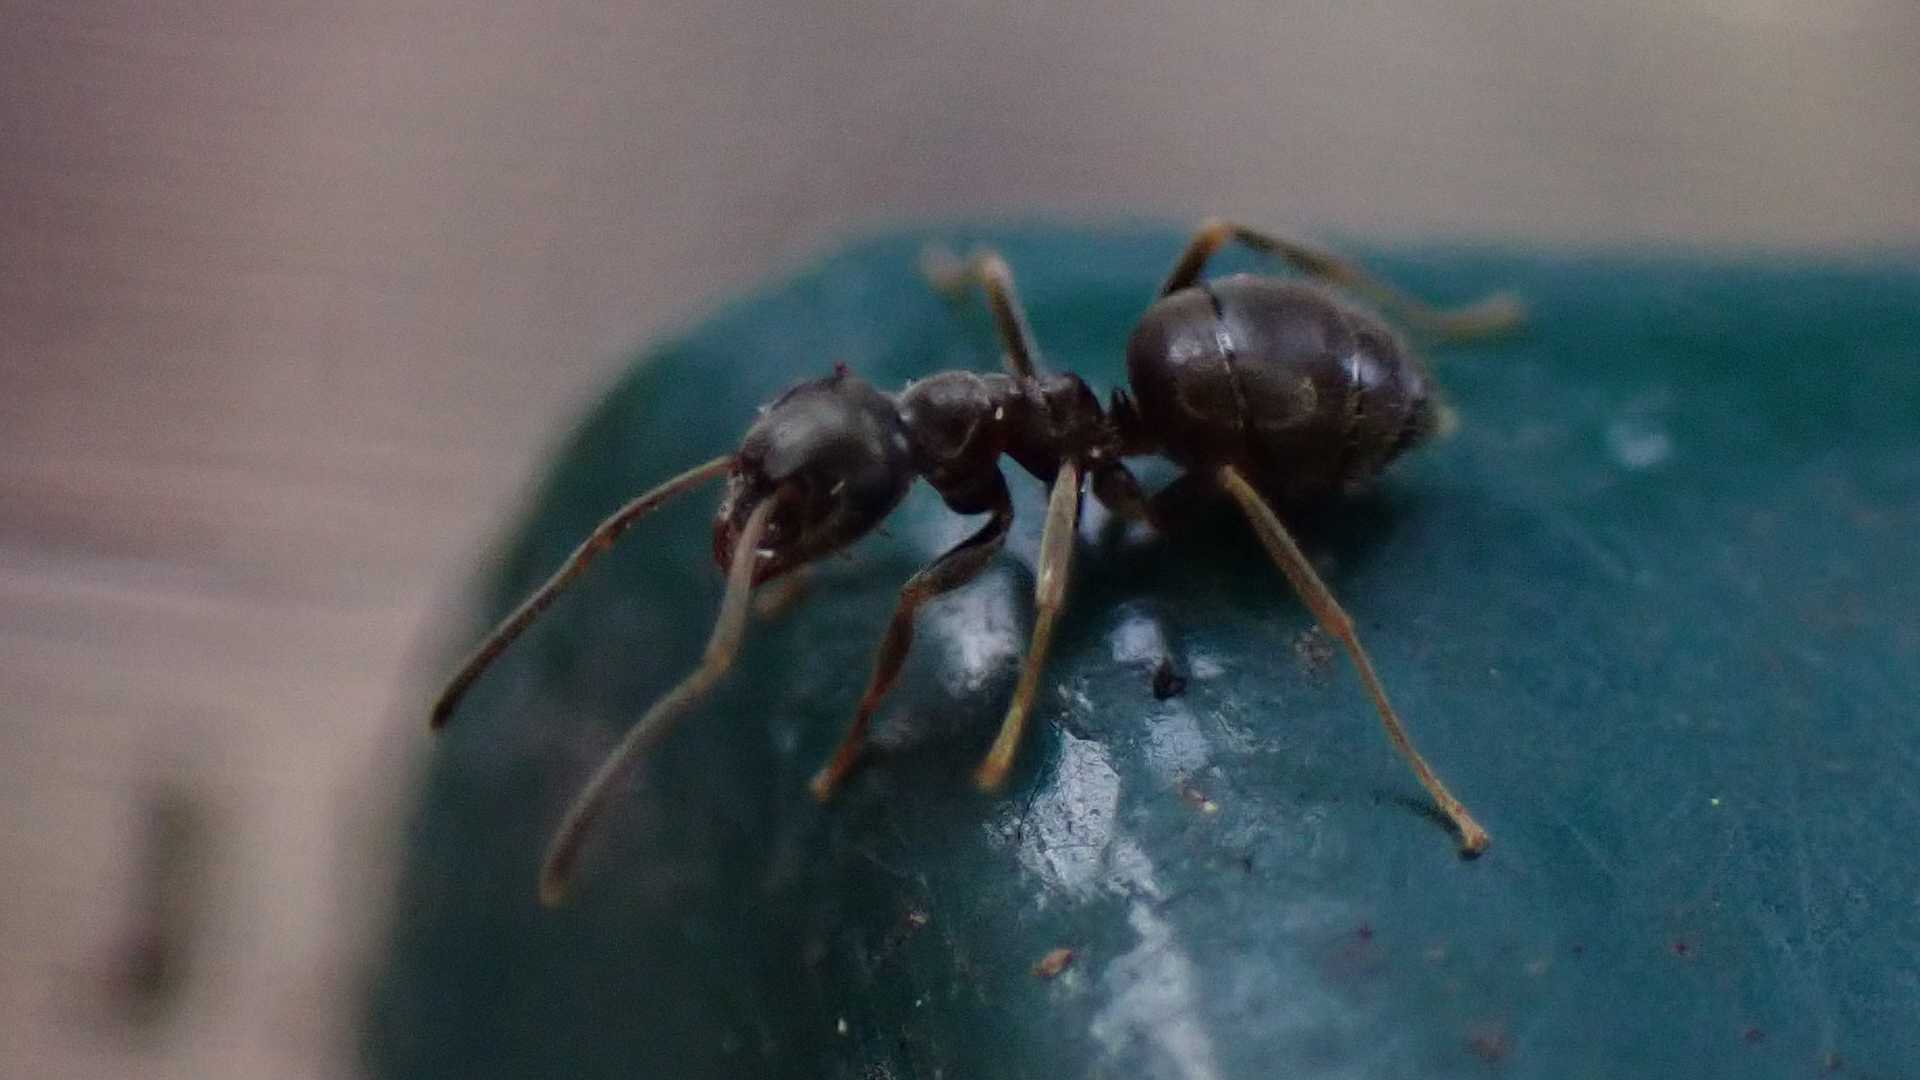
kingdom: Animalia
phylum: Arthropoda
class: Insecta
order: Hymenoptera
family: Formicidae
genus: Lasius
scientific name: Lasius
